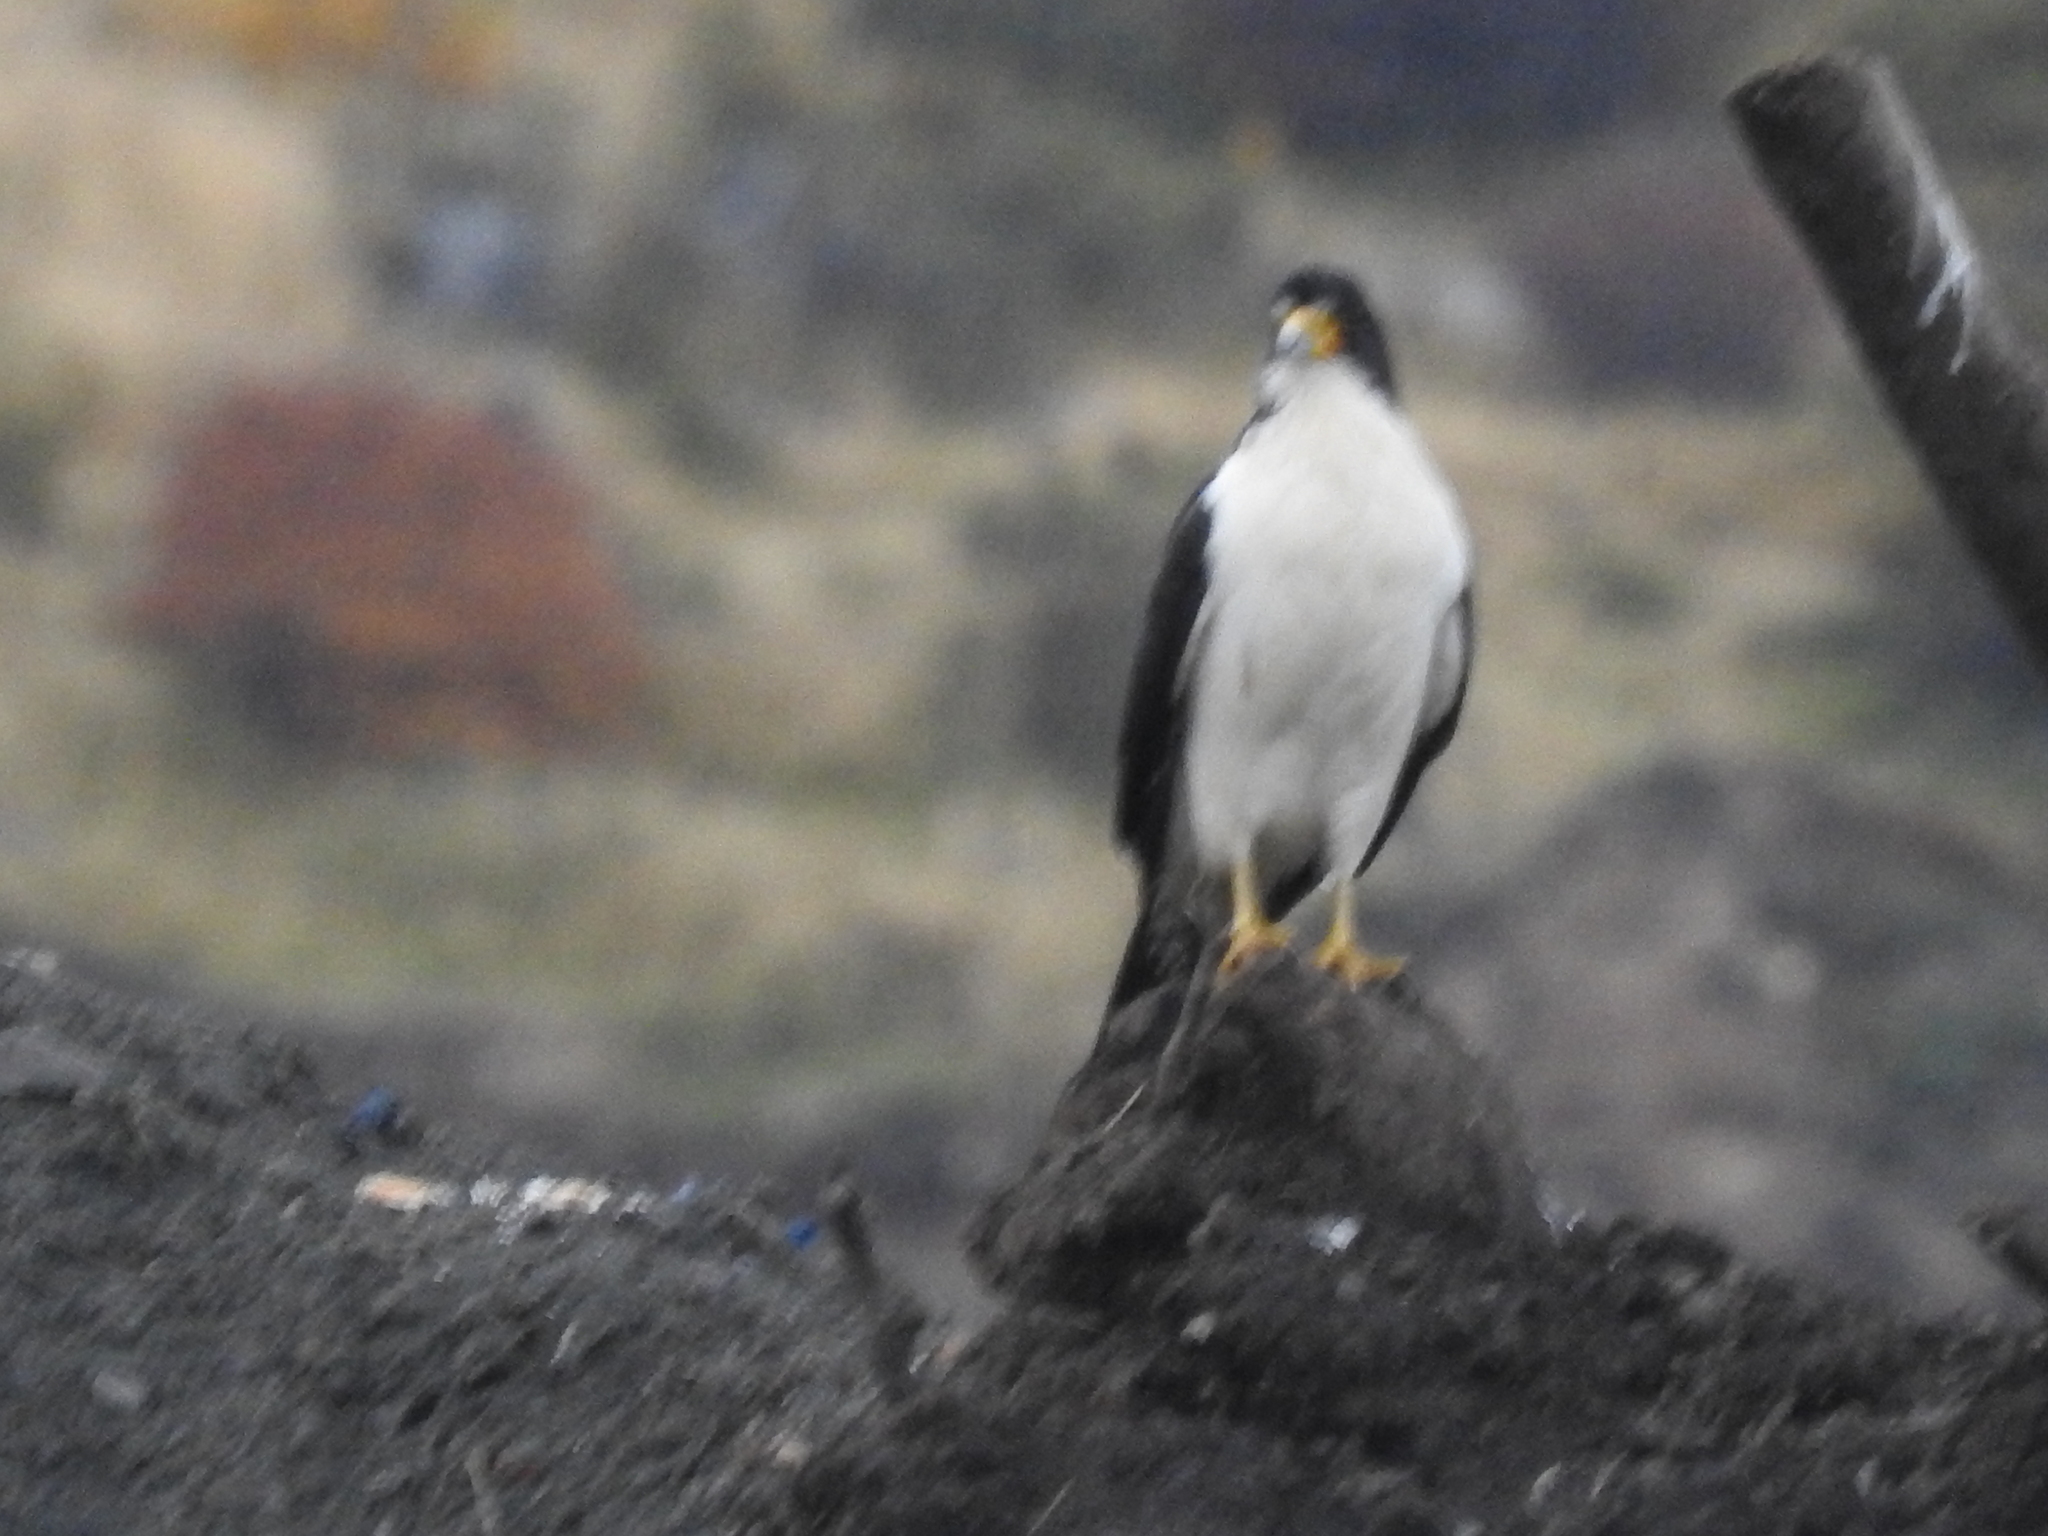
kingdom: Animalia
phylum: Chordata
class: Aves
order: Falconiformes
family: Falconidae
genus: Daptrius
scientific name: Daptrius
